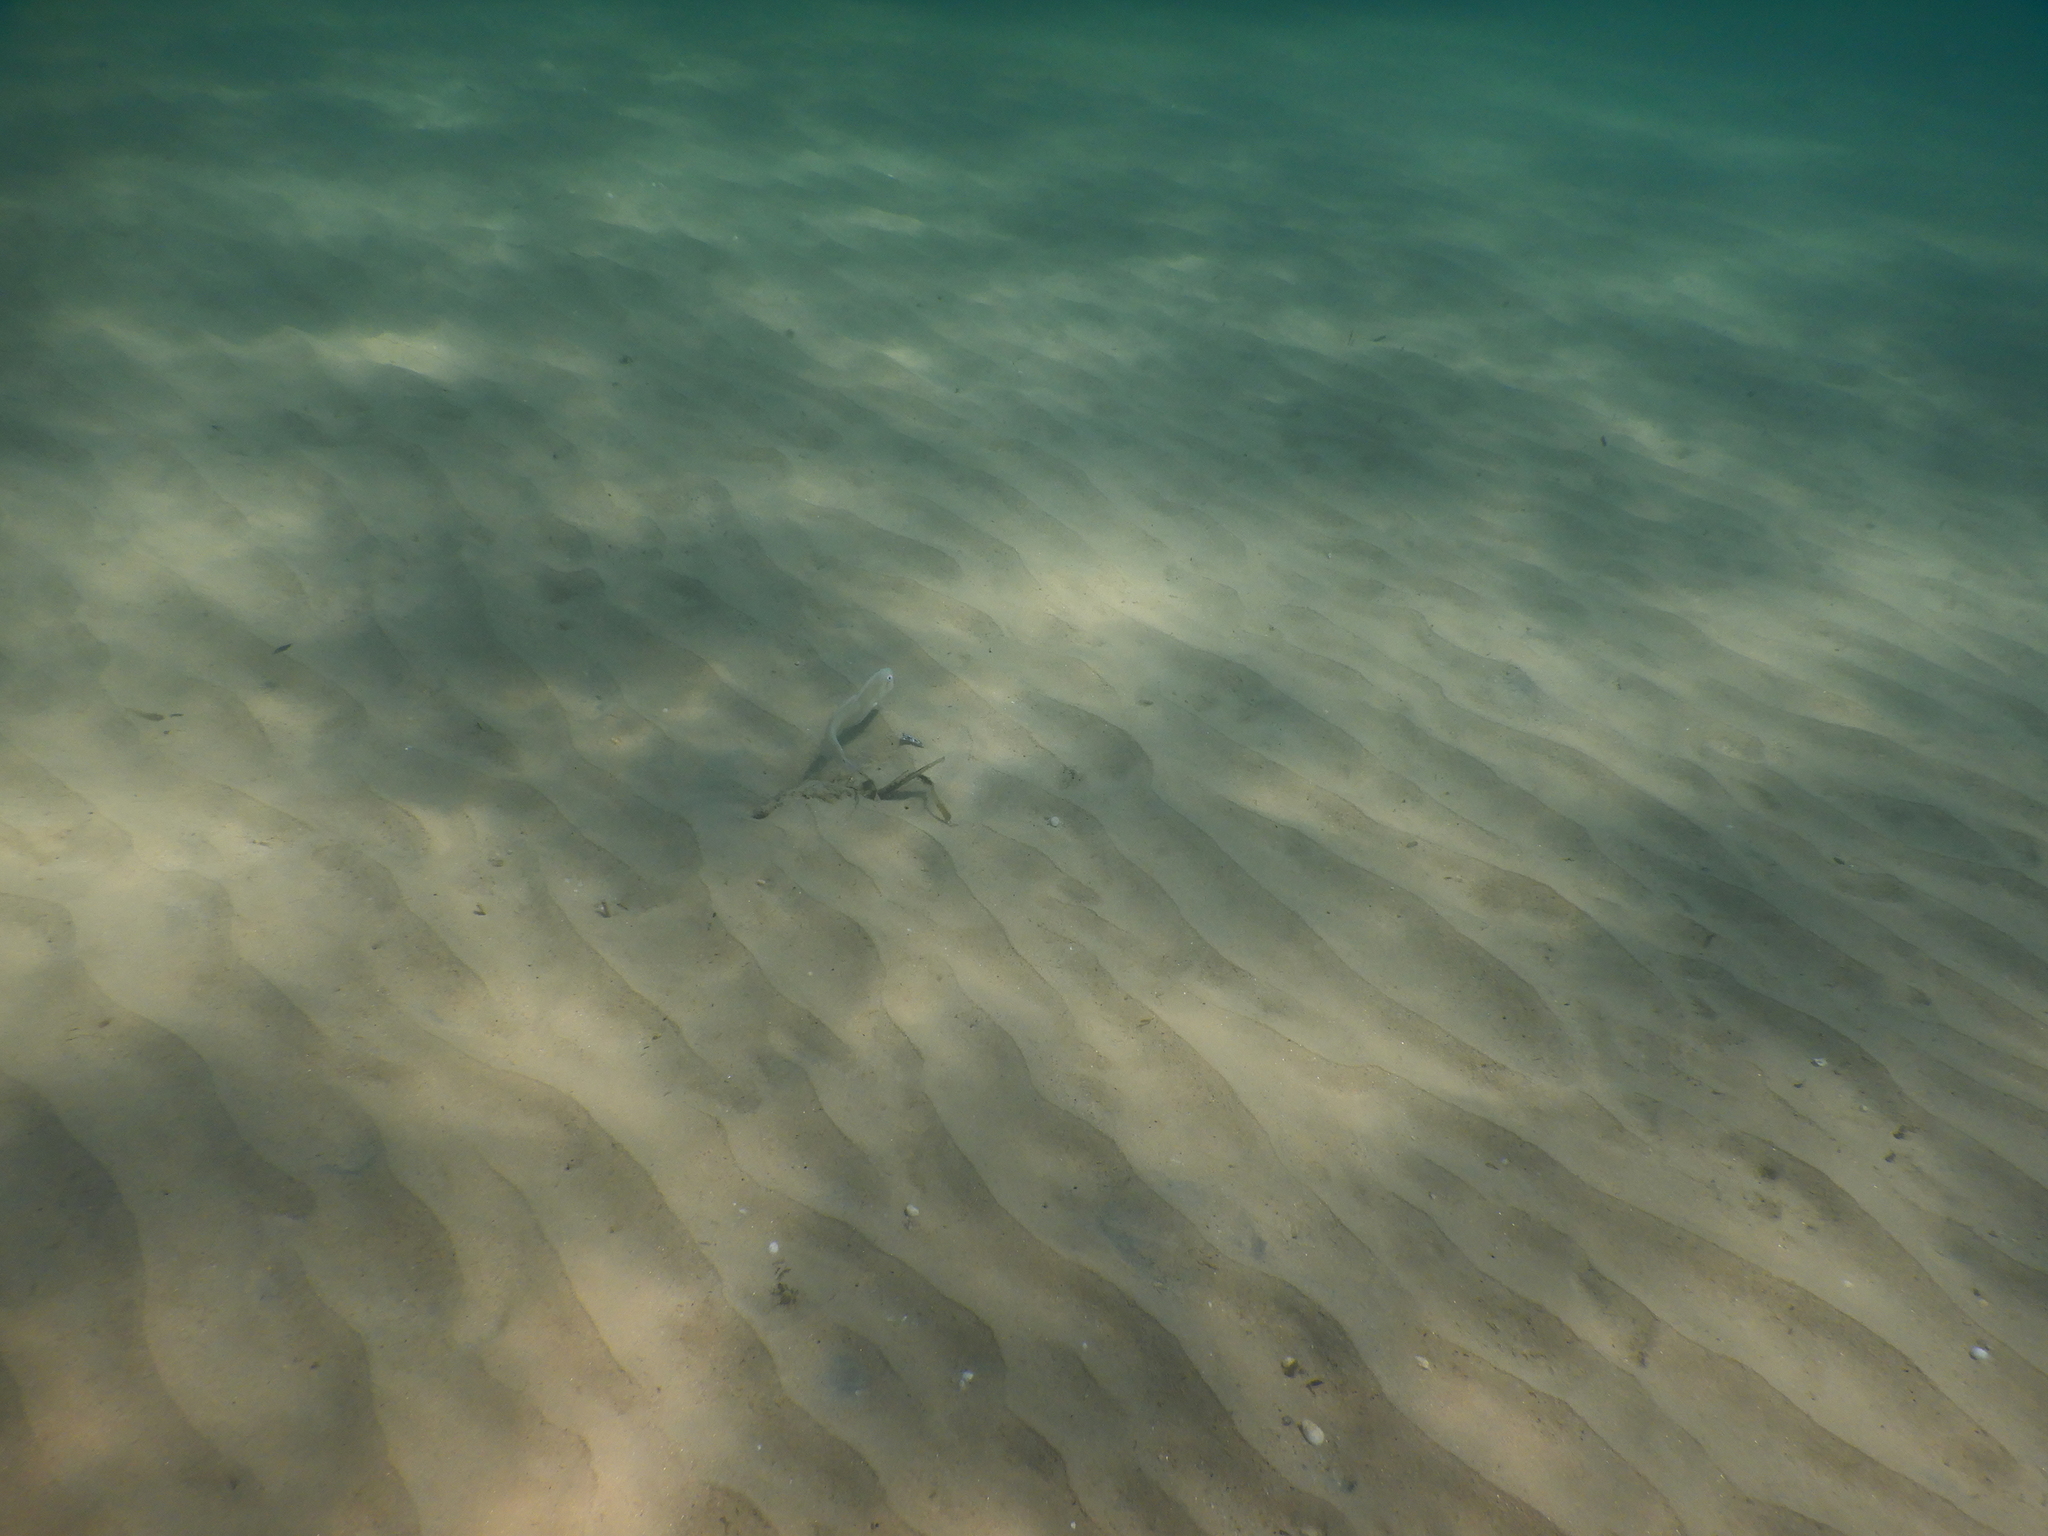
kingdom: Animalia
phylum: Chordata
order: Perciformes
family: Labridae
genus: Xyrichtys
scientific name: Xyrichtys novacula
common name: Pearly razorfish
